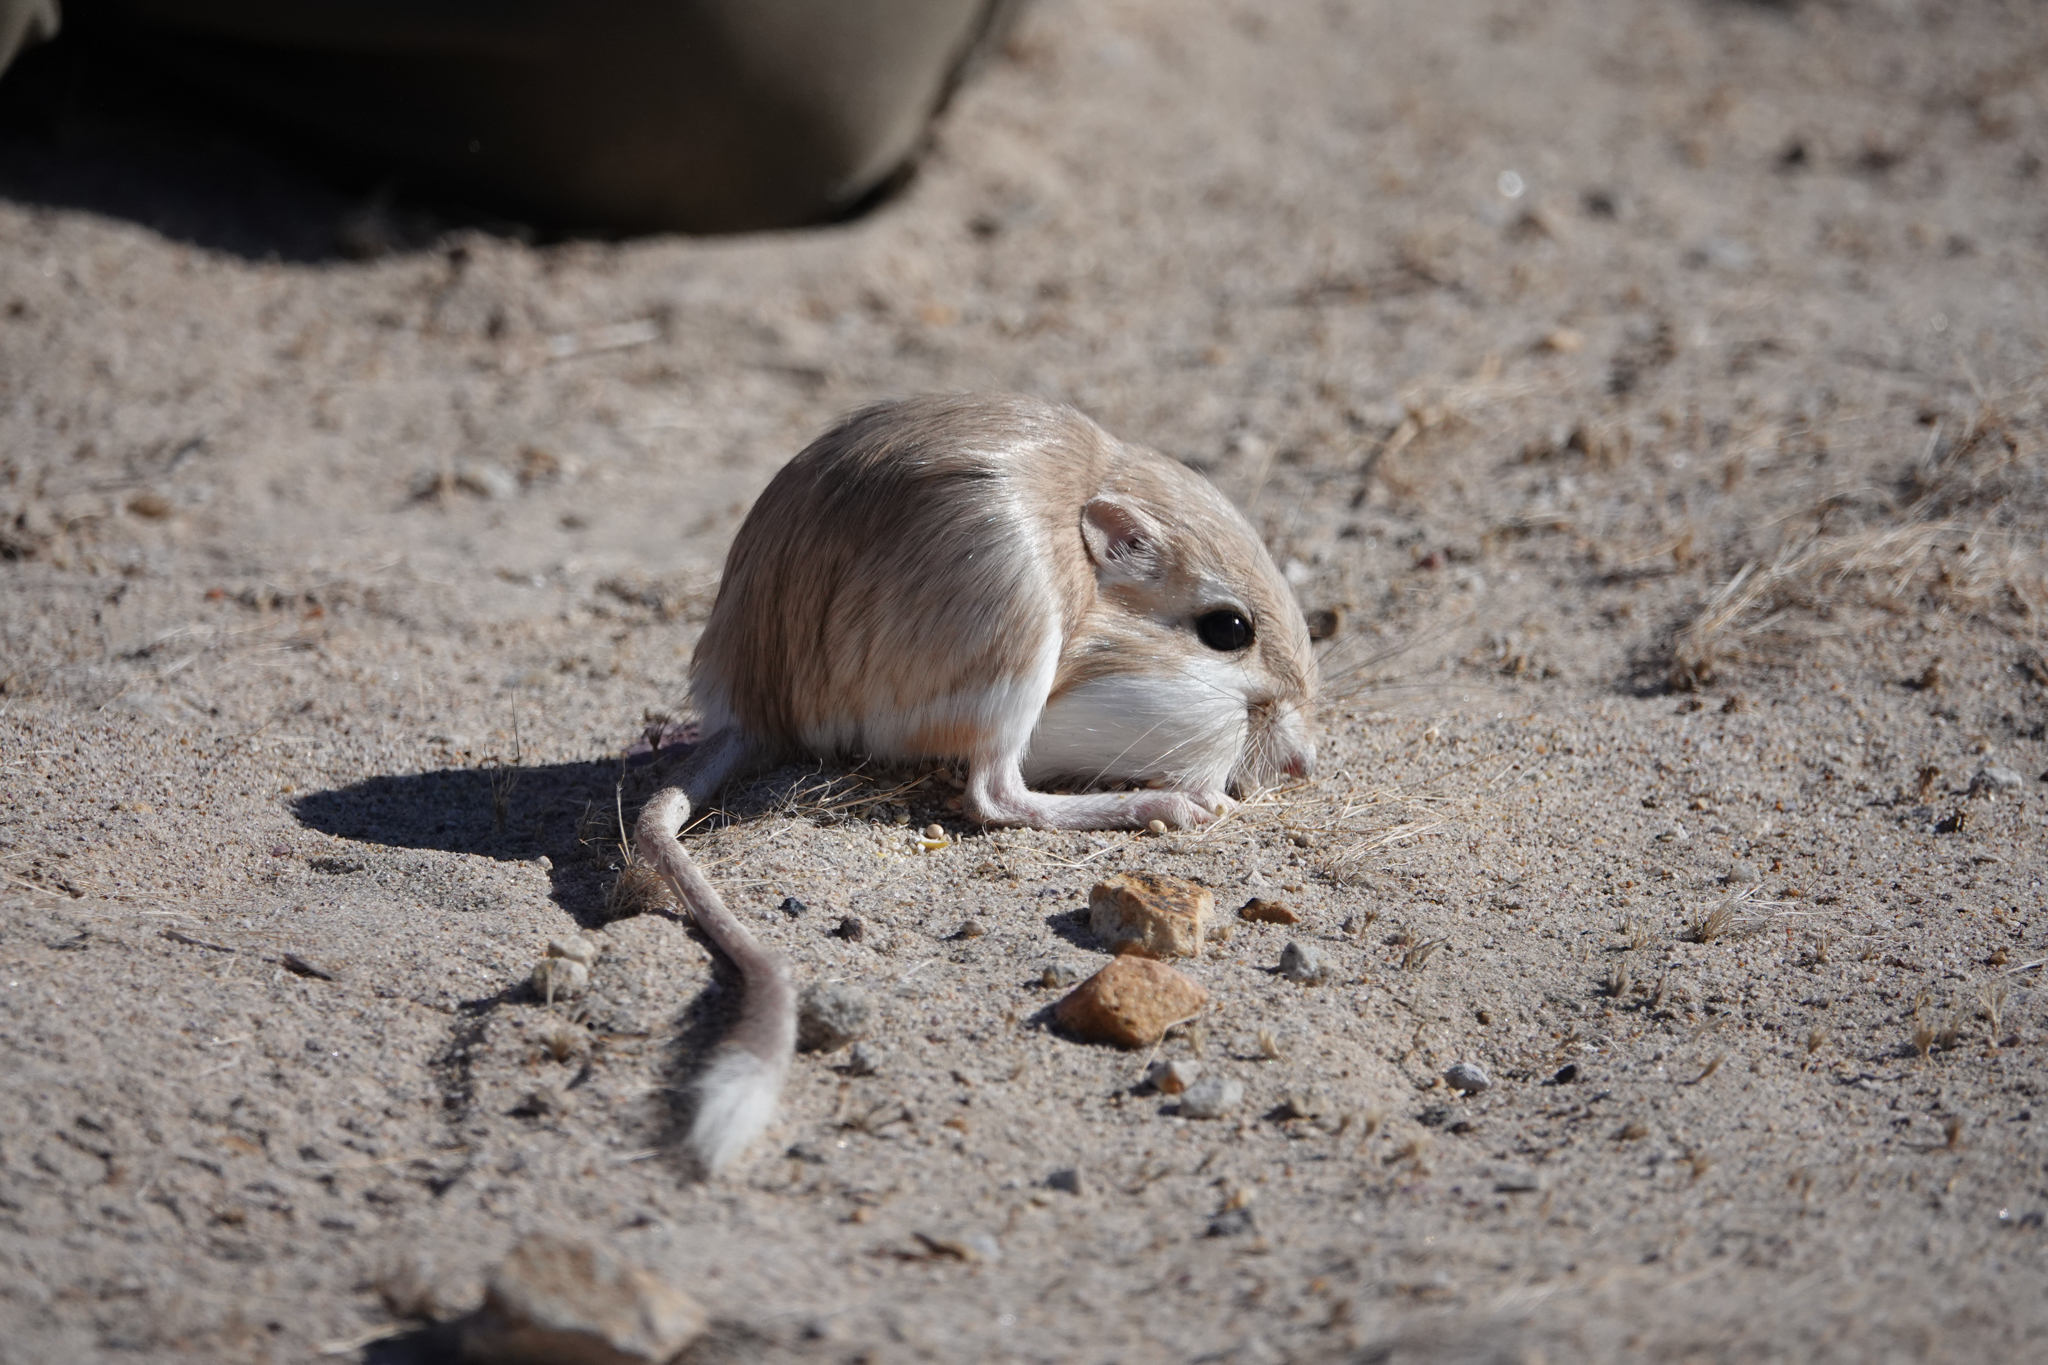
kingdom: Animalia
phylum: Chordata
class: Mammalia
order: Rodentia
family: Heteromyidae
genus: Dipodomys
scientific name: Dipodomys deserti
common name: Desert kangaroo rat
